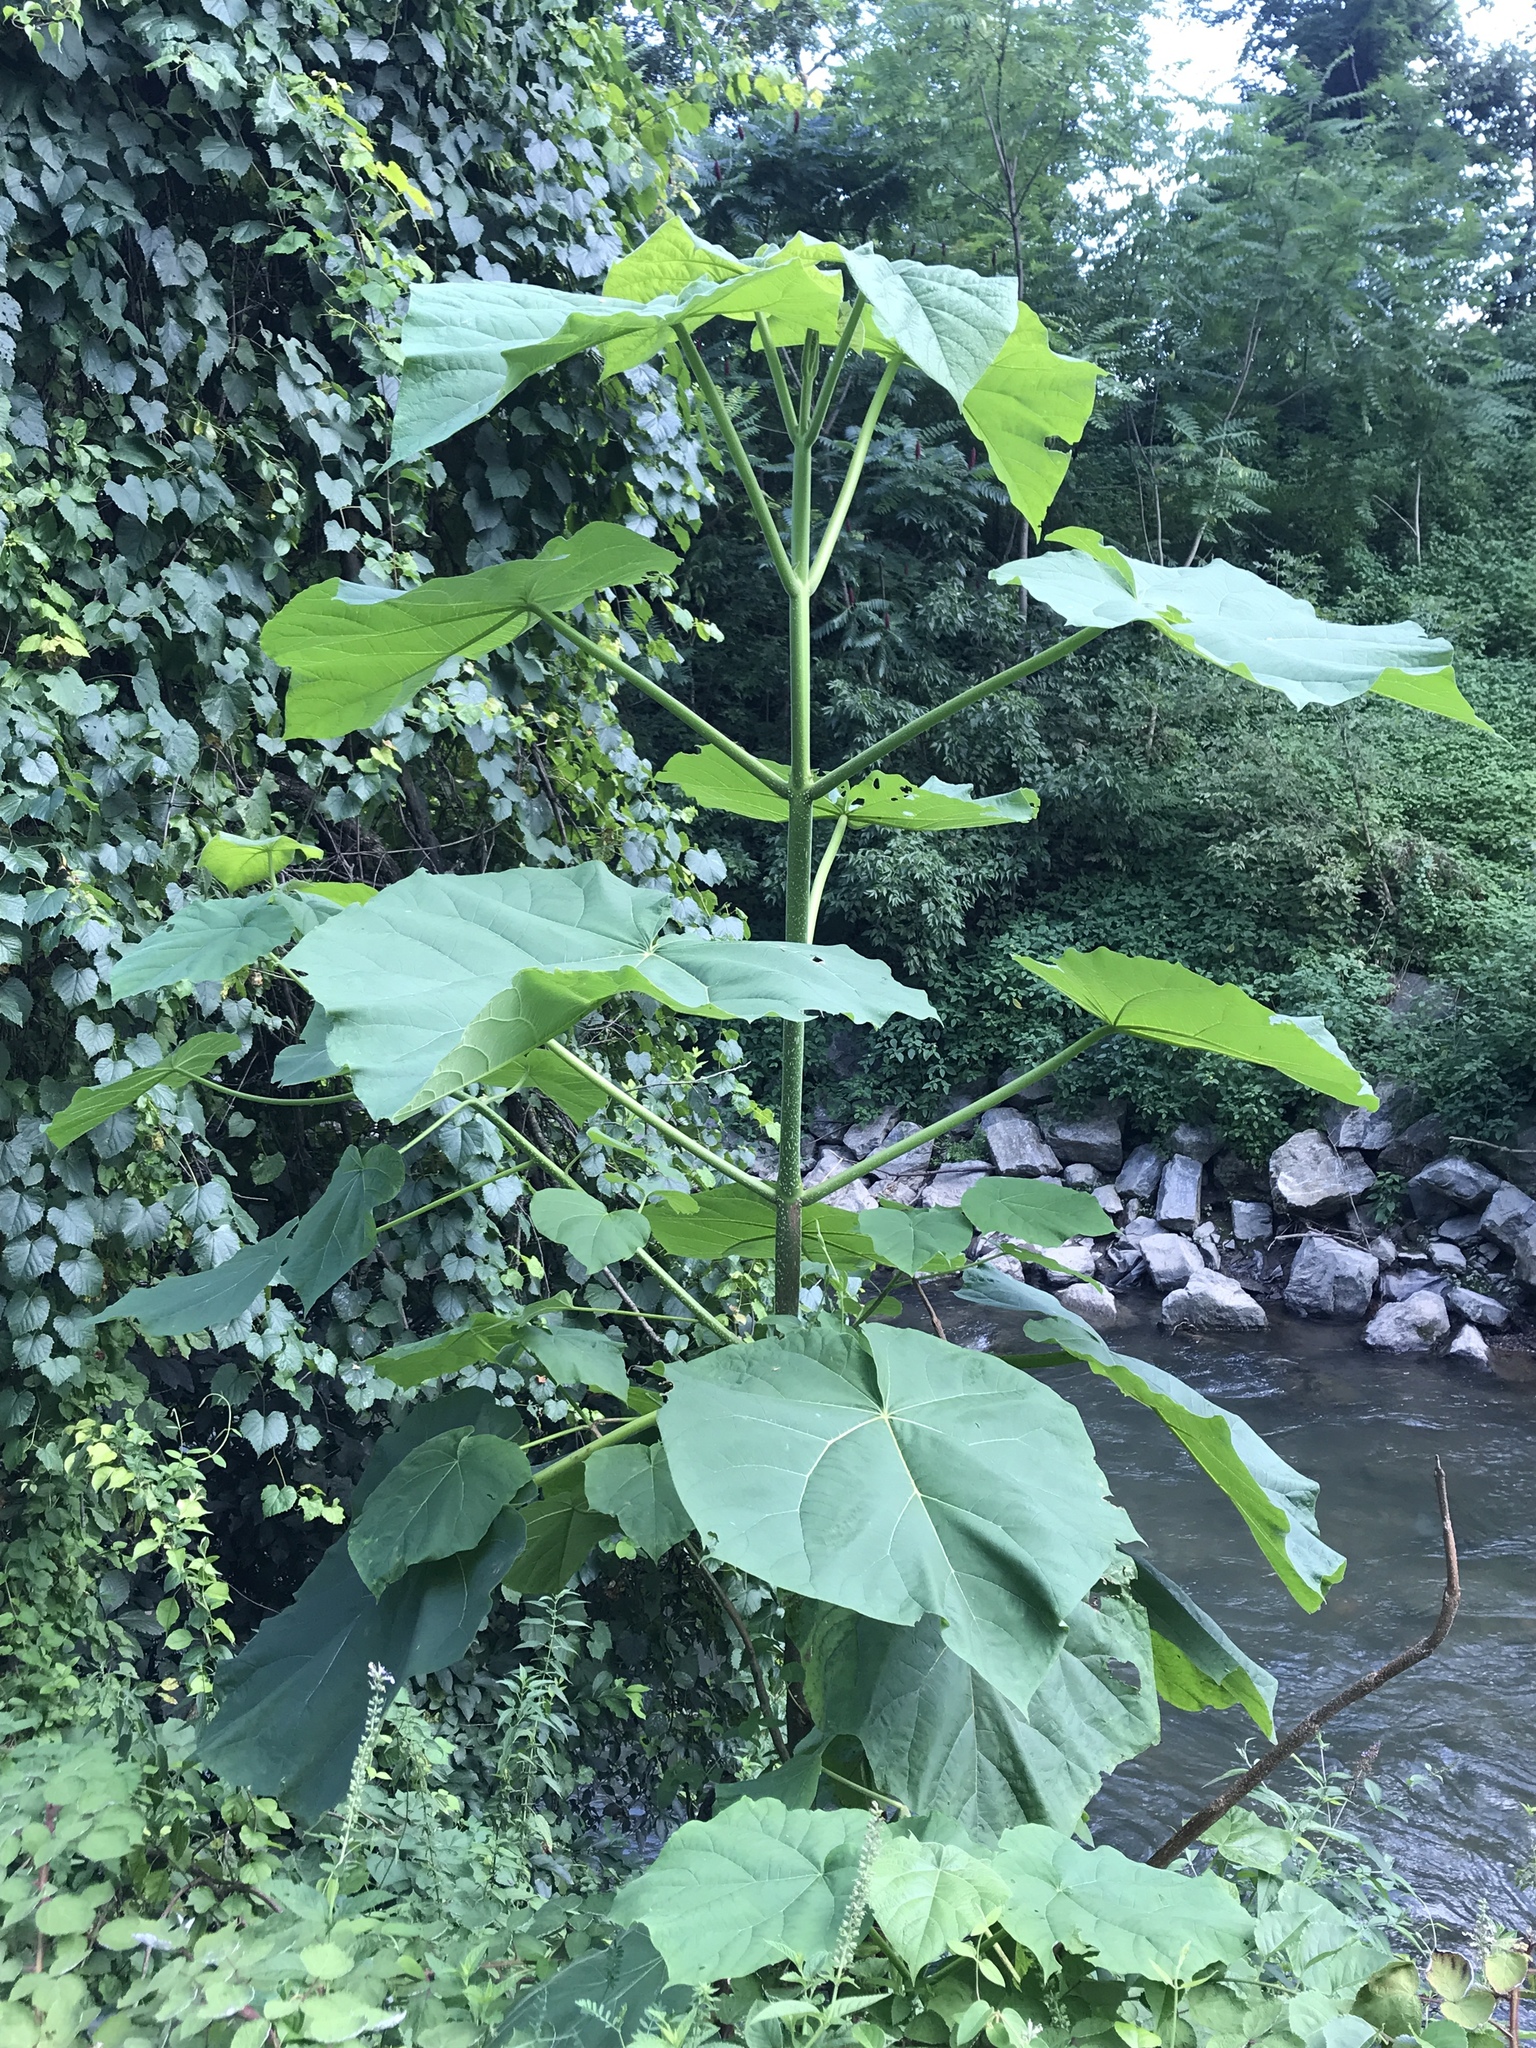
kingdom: Plantae
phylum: Tracheophyta
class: Magnoliopsida
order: Lamiales
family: Paulowniaceae
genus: Paulownia
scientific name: Paulownia tomentosa
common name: Foxglove-tree
